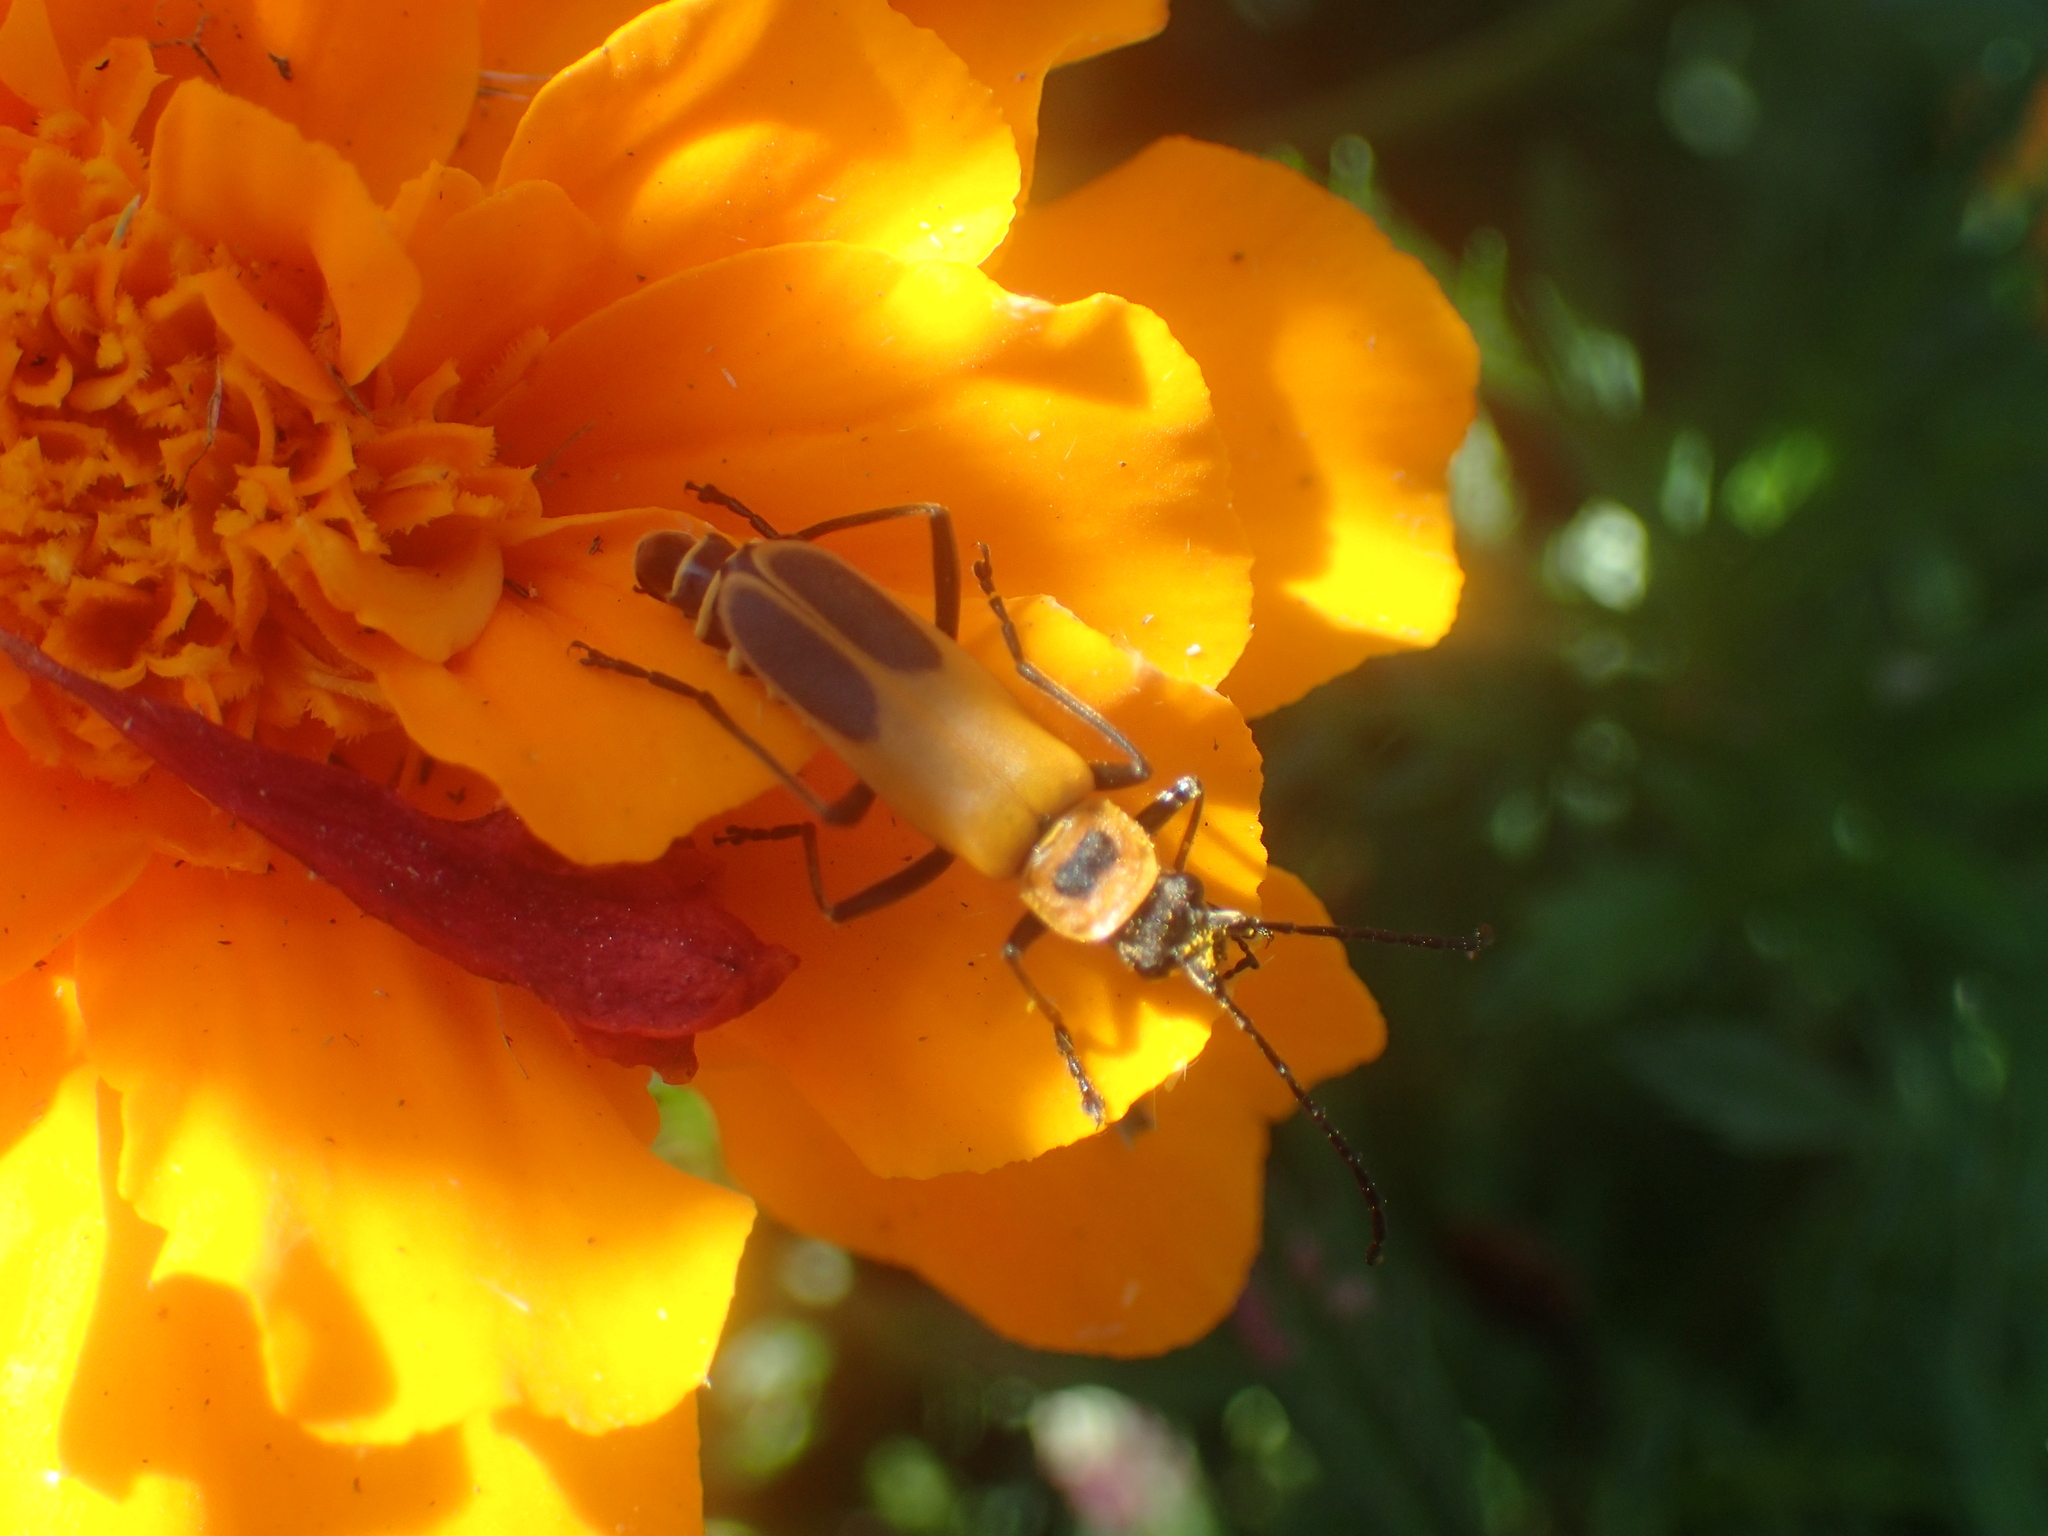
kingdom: Animalia
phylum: Arthropoda
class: Insecta
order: Coleoptera
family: Cantharidae
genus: Chauliognathus
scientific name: Chauliognathus pensylvanicus
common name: Goldenrod soldier beetle
